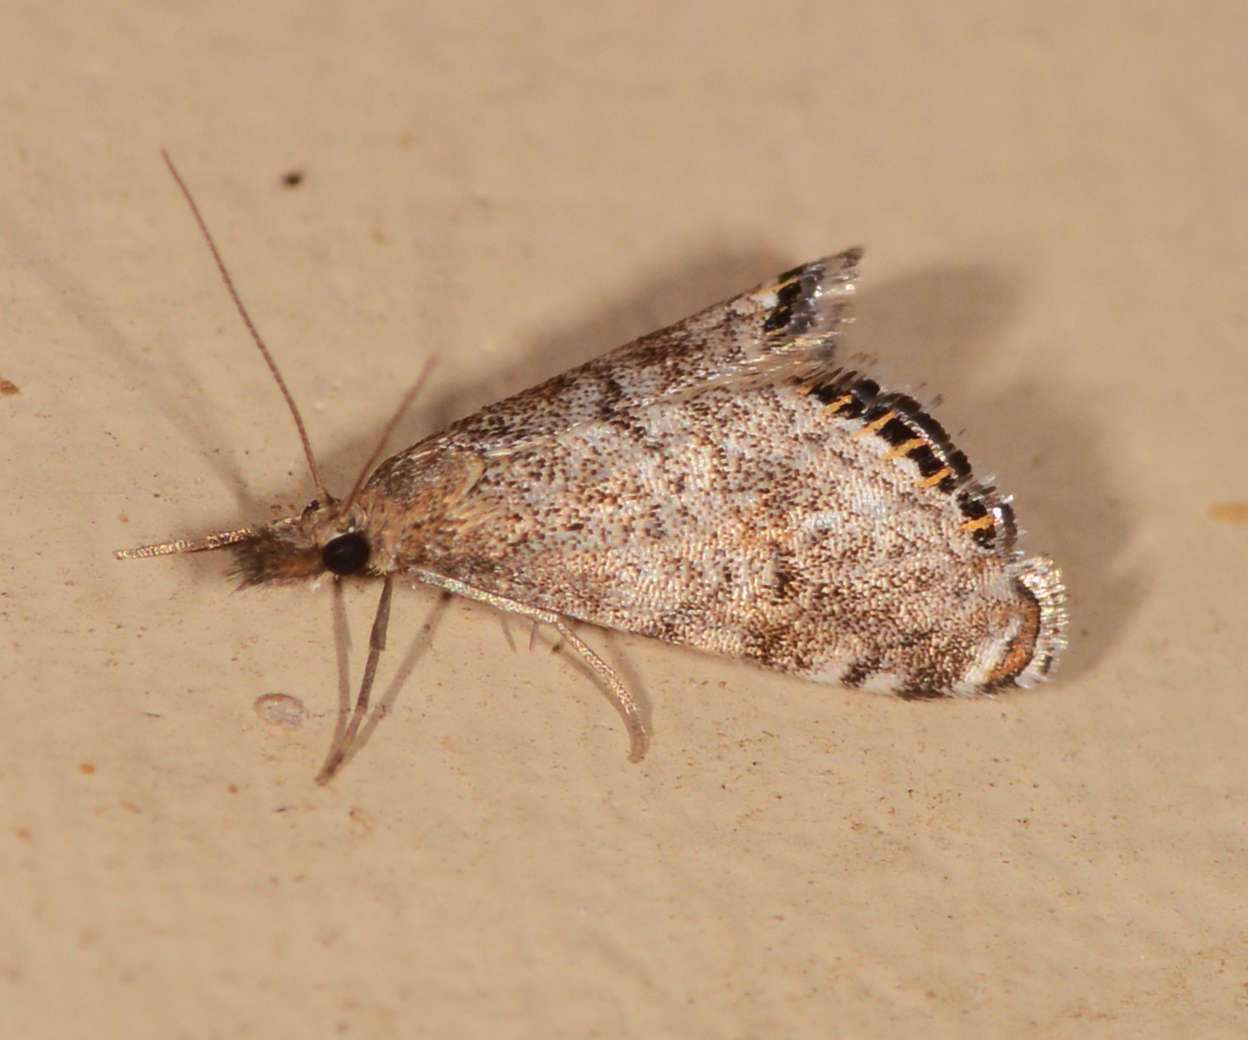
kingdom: Animalia
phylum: Arthropoda
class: Insecta
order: Lepidoptera
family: Crambidae
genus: Glaucocharis
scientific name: Glaucocharis dilatella
